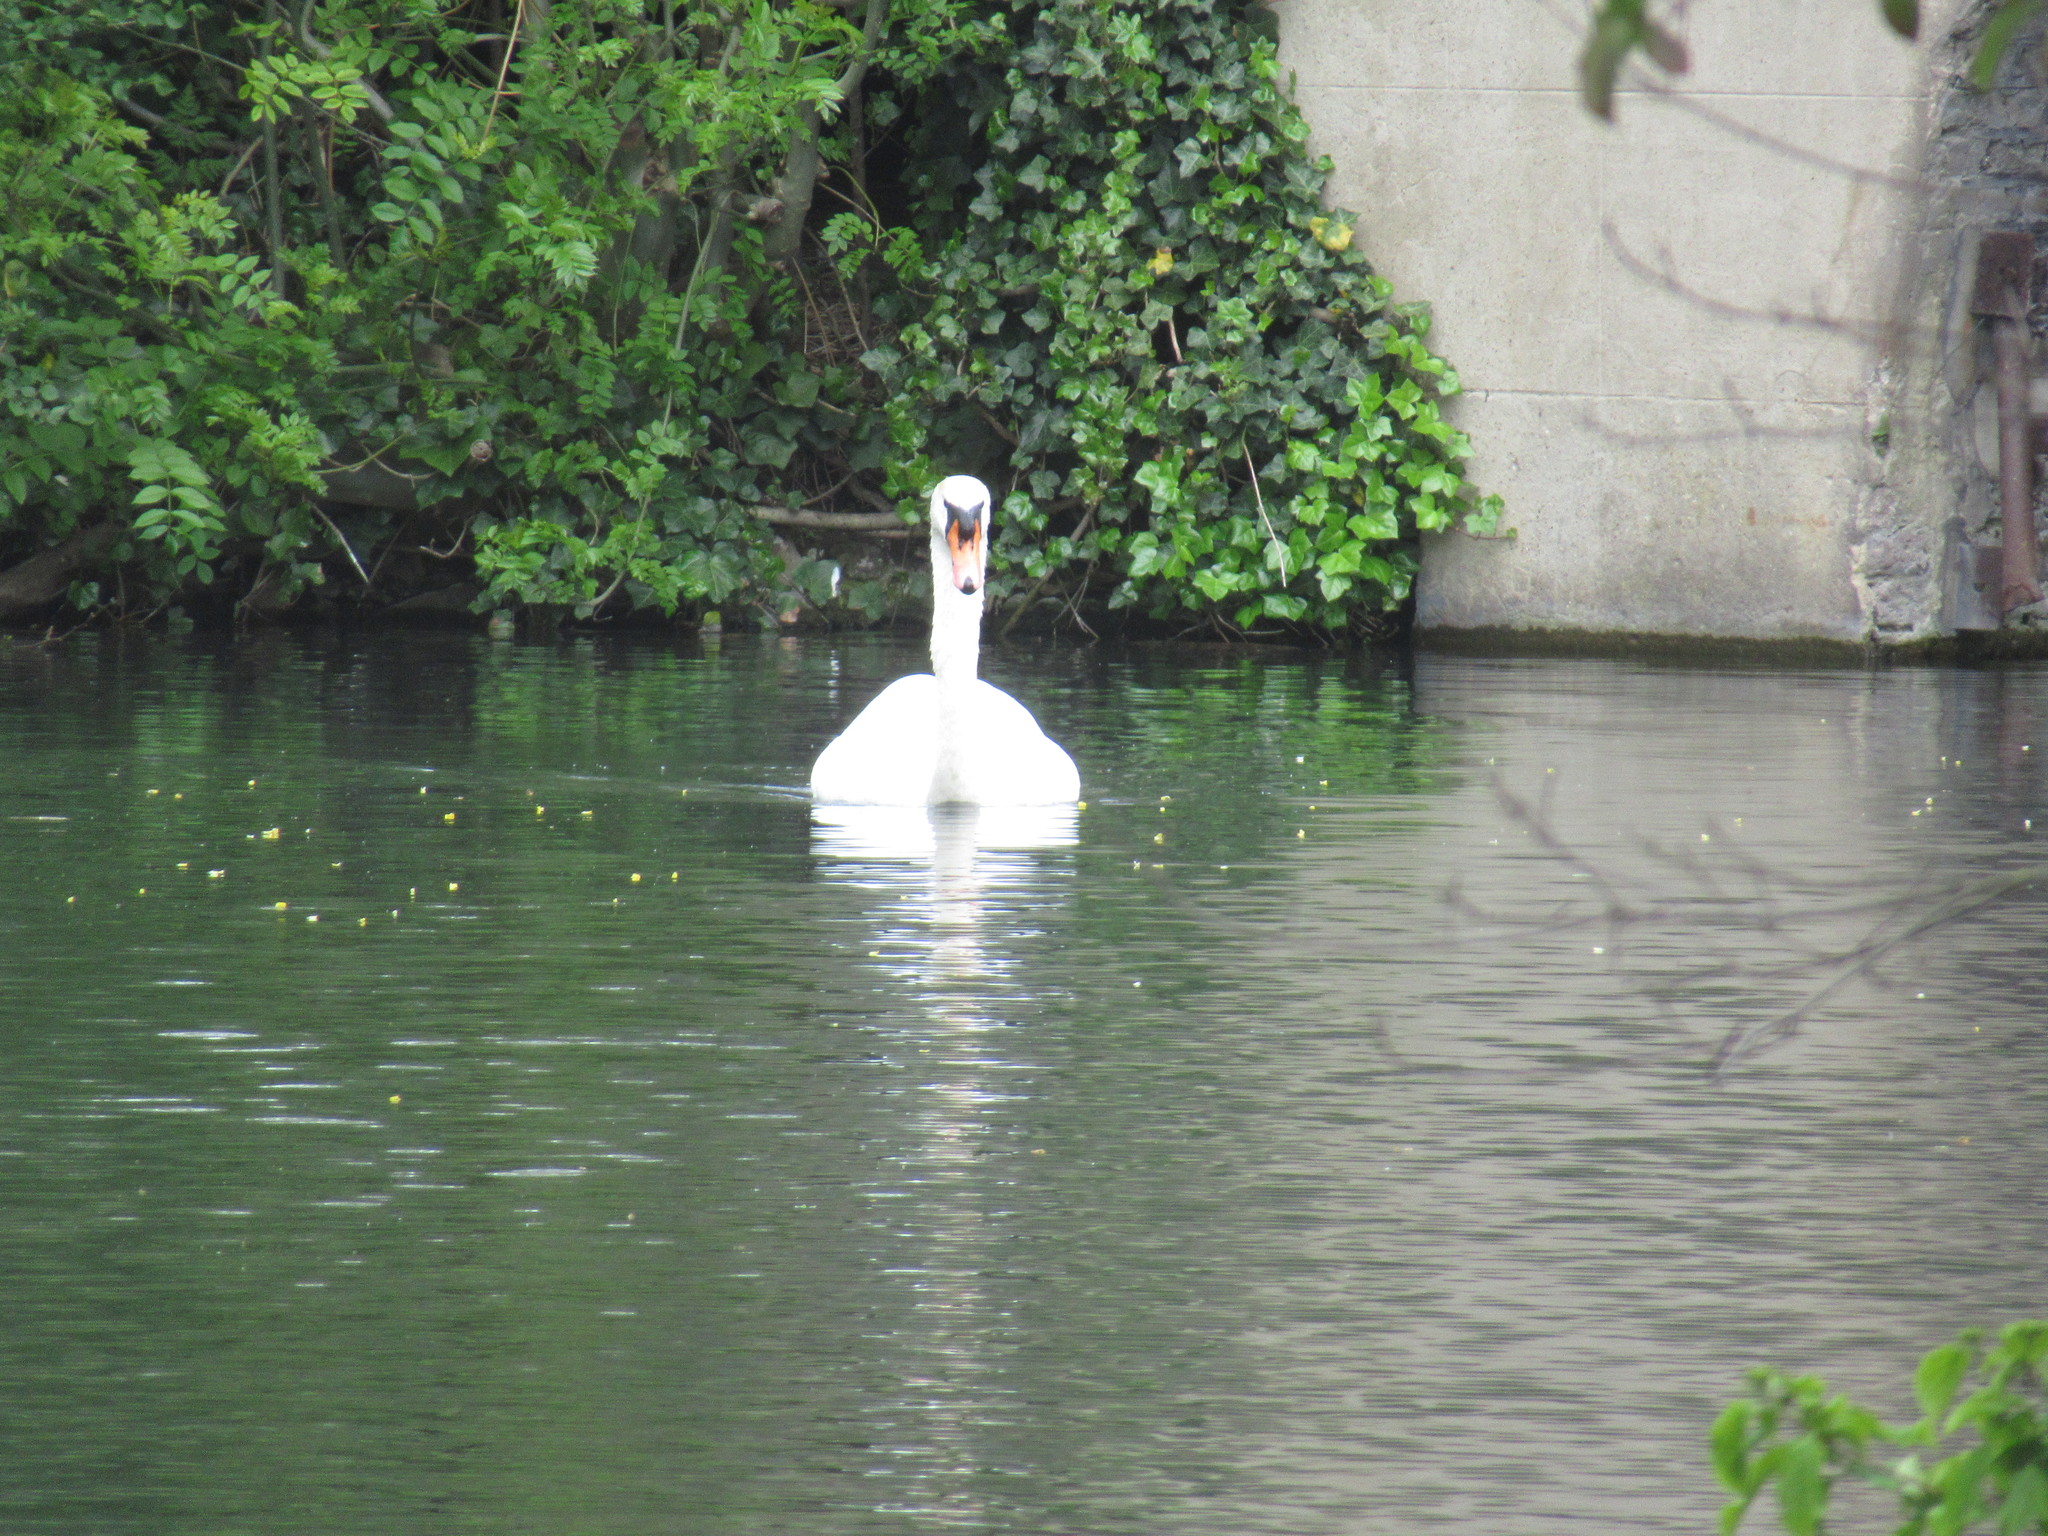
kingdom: Animalia
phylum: Chordata
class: Aves
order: Anseriformes
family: Anatidae
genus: Cygnus
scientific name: Cygnus olor
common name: Mute swan
